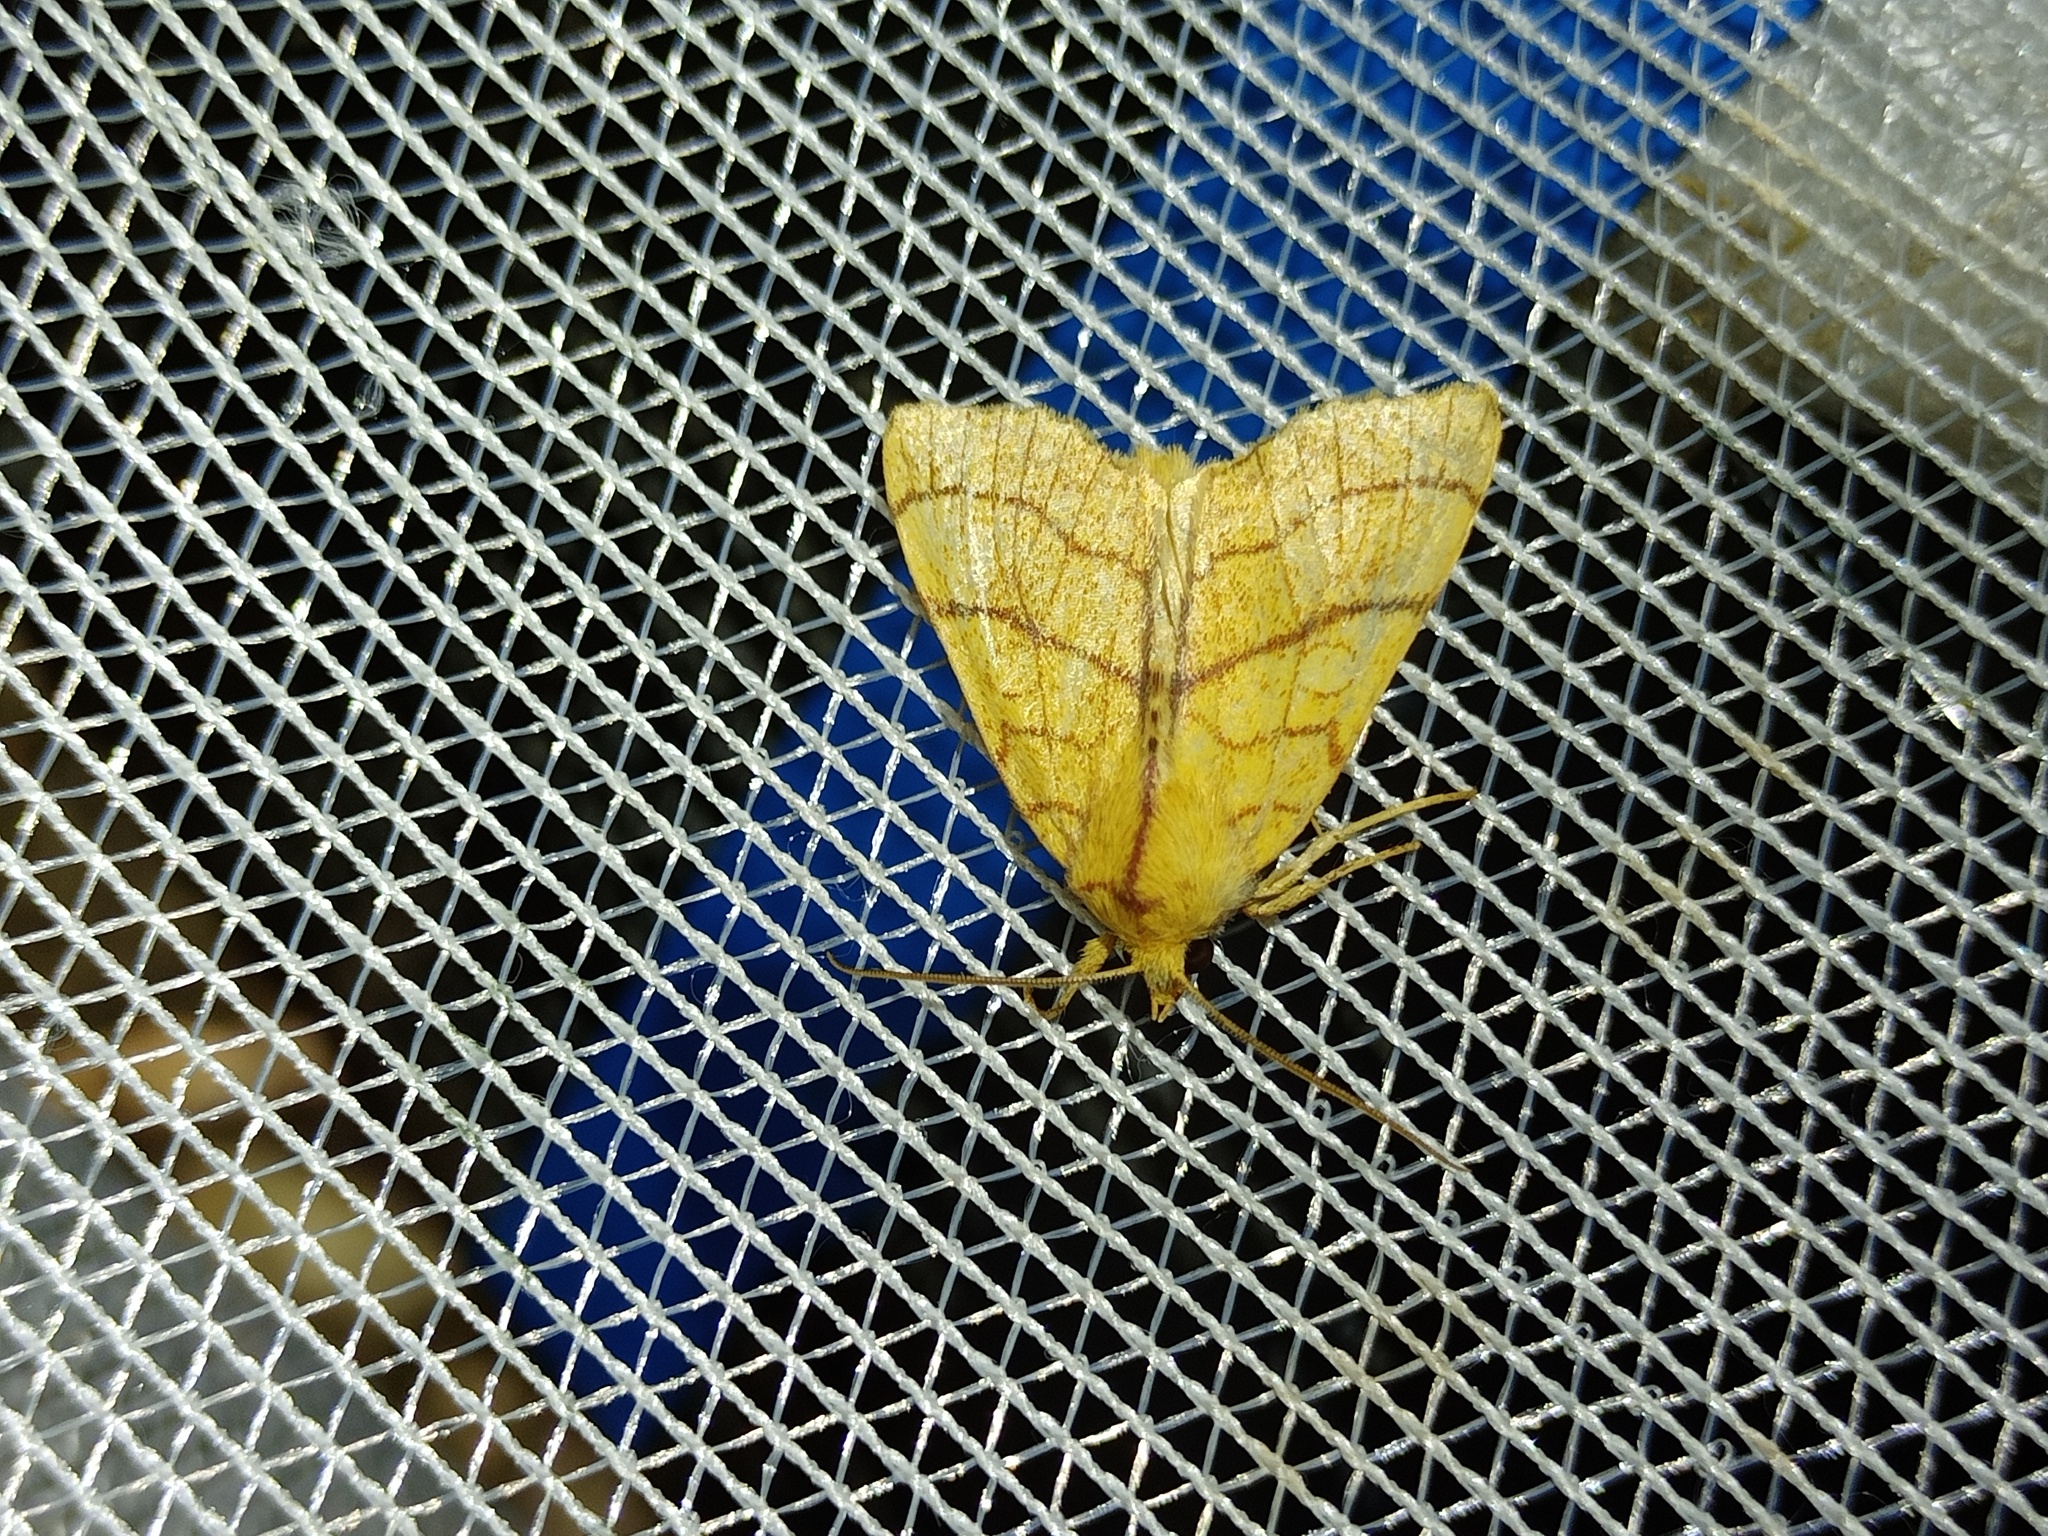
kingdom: Animalia
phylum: Arthropoda
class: Insecta
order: Lepidoptera
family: Noctuidae
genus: Tiliacea
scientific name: Tiliacea citrago
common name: Orange sallow
